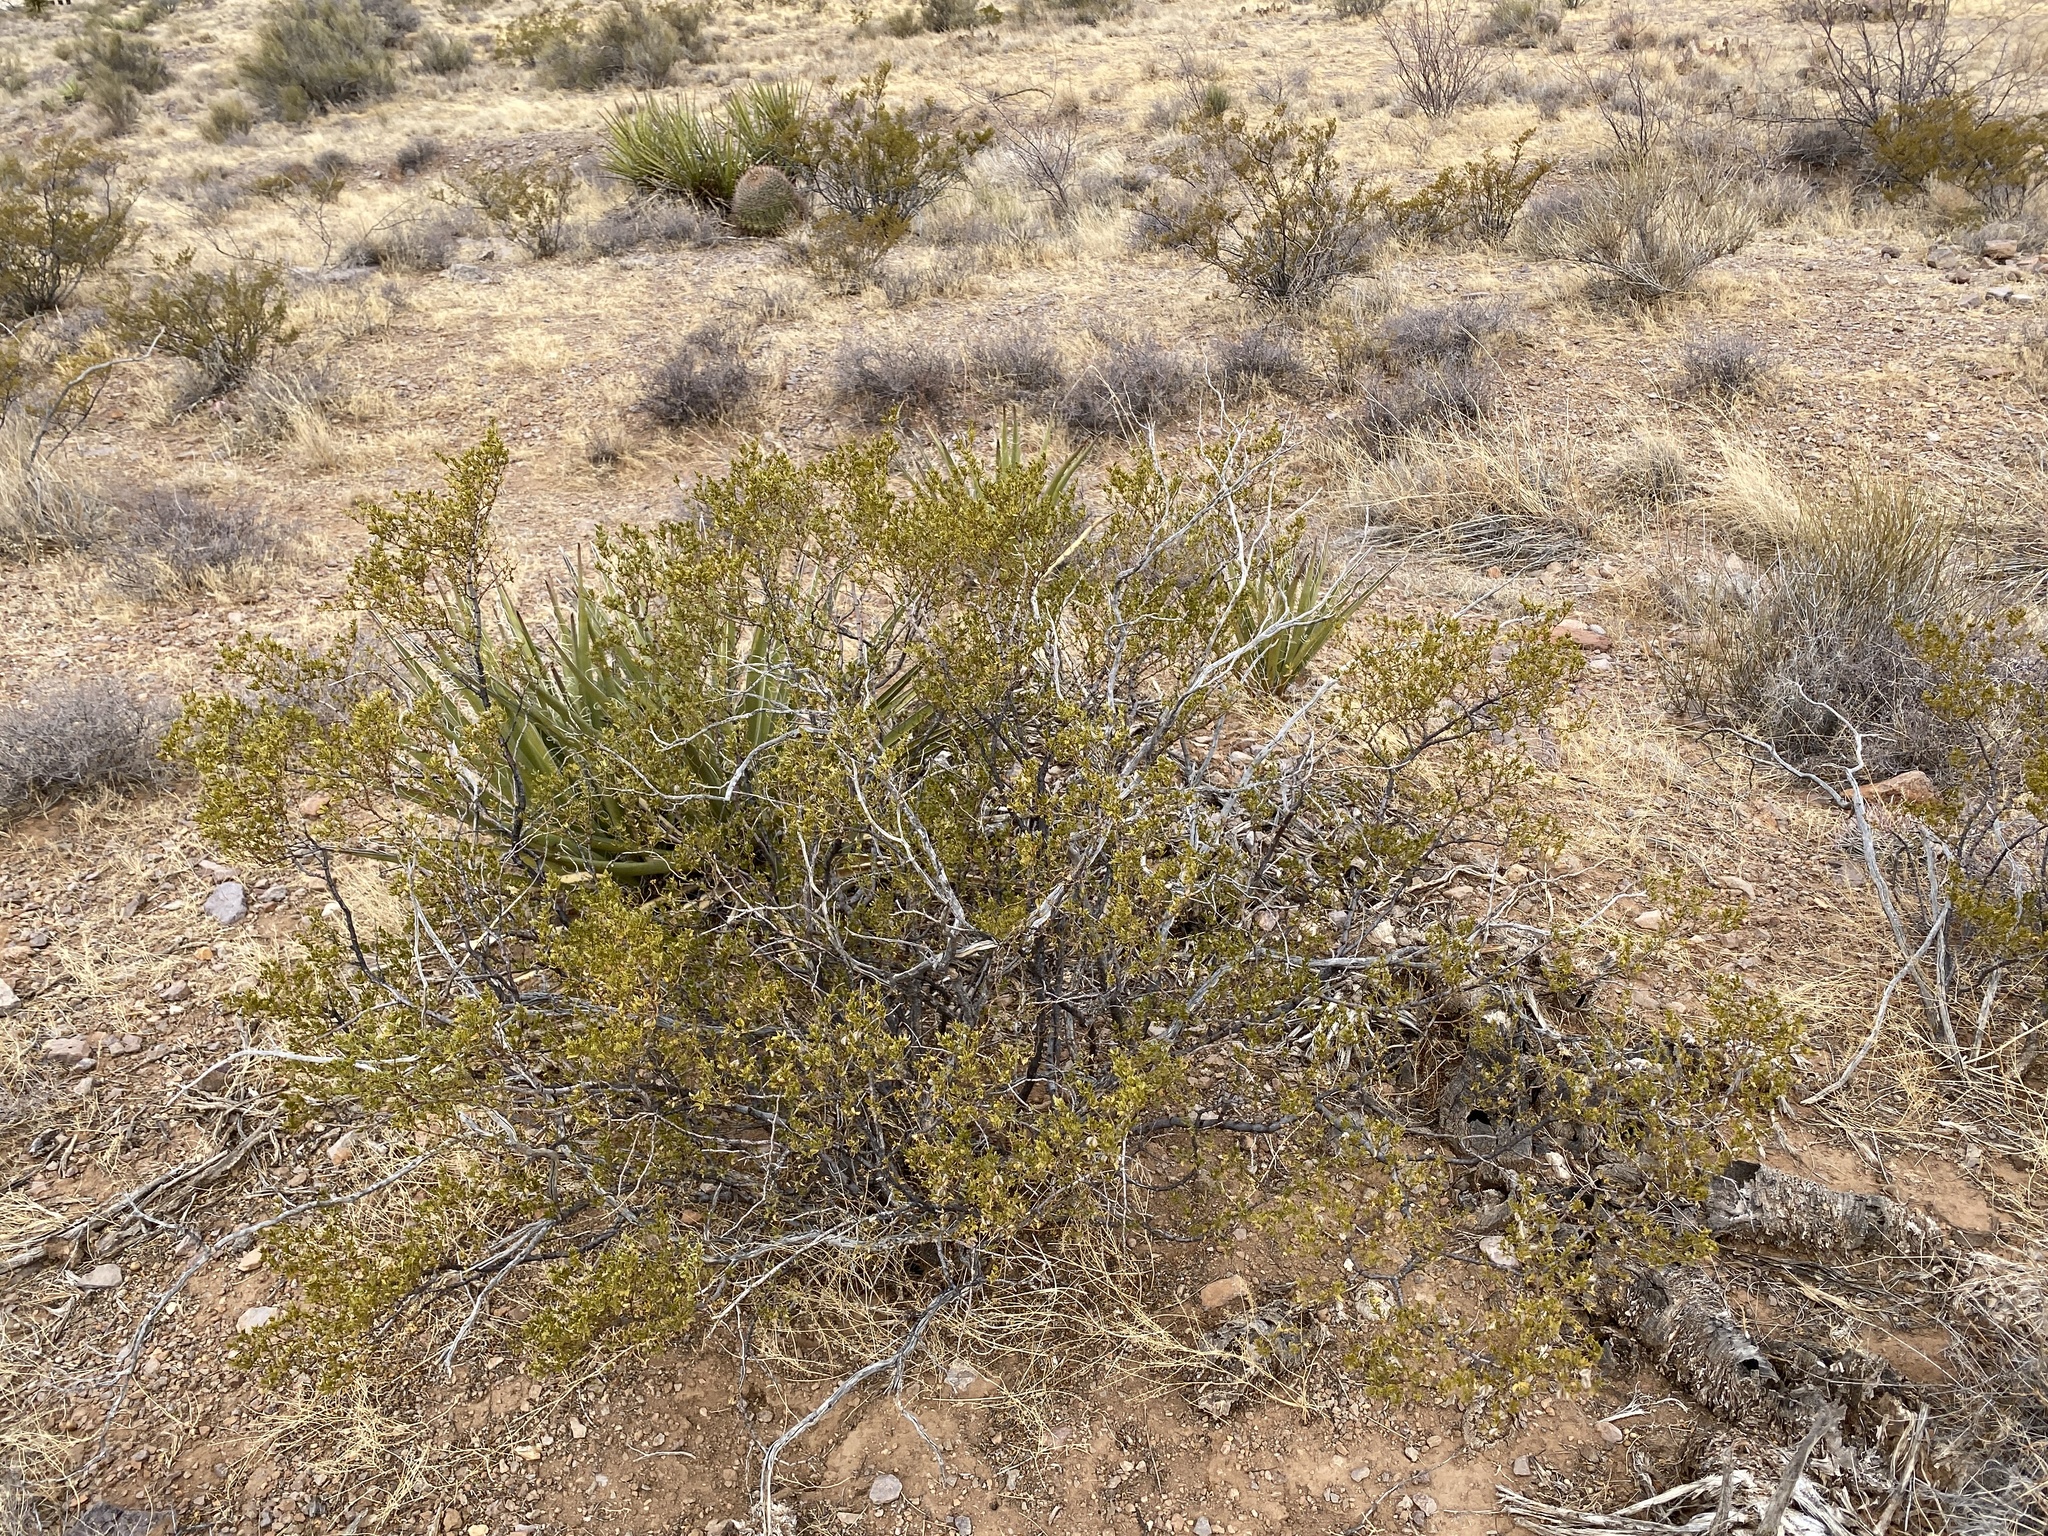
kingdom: Plantae
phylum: Tracheophyta
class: Magnoliopsida
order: Zygophyllales
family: Zygophyllaceae
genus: Larrea
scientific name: Larrea tridentata
